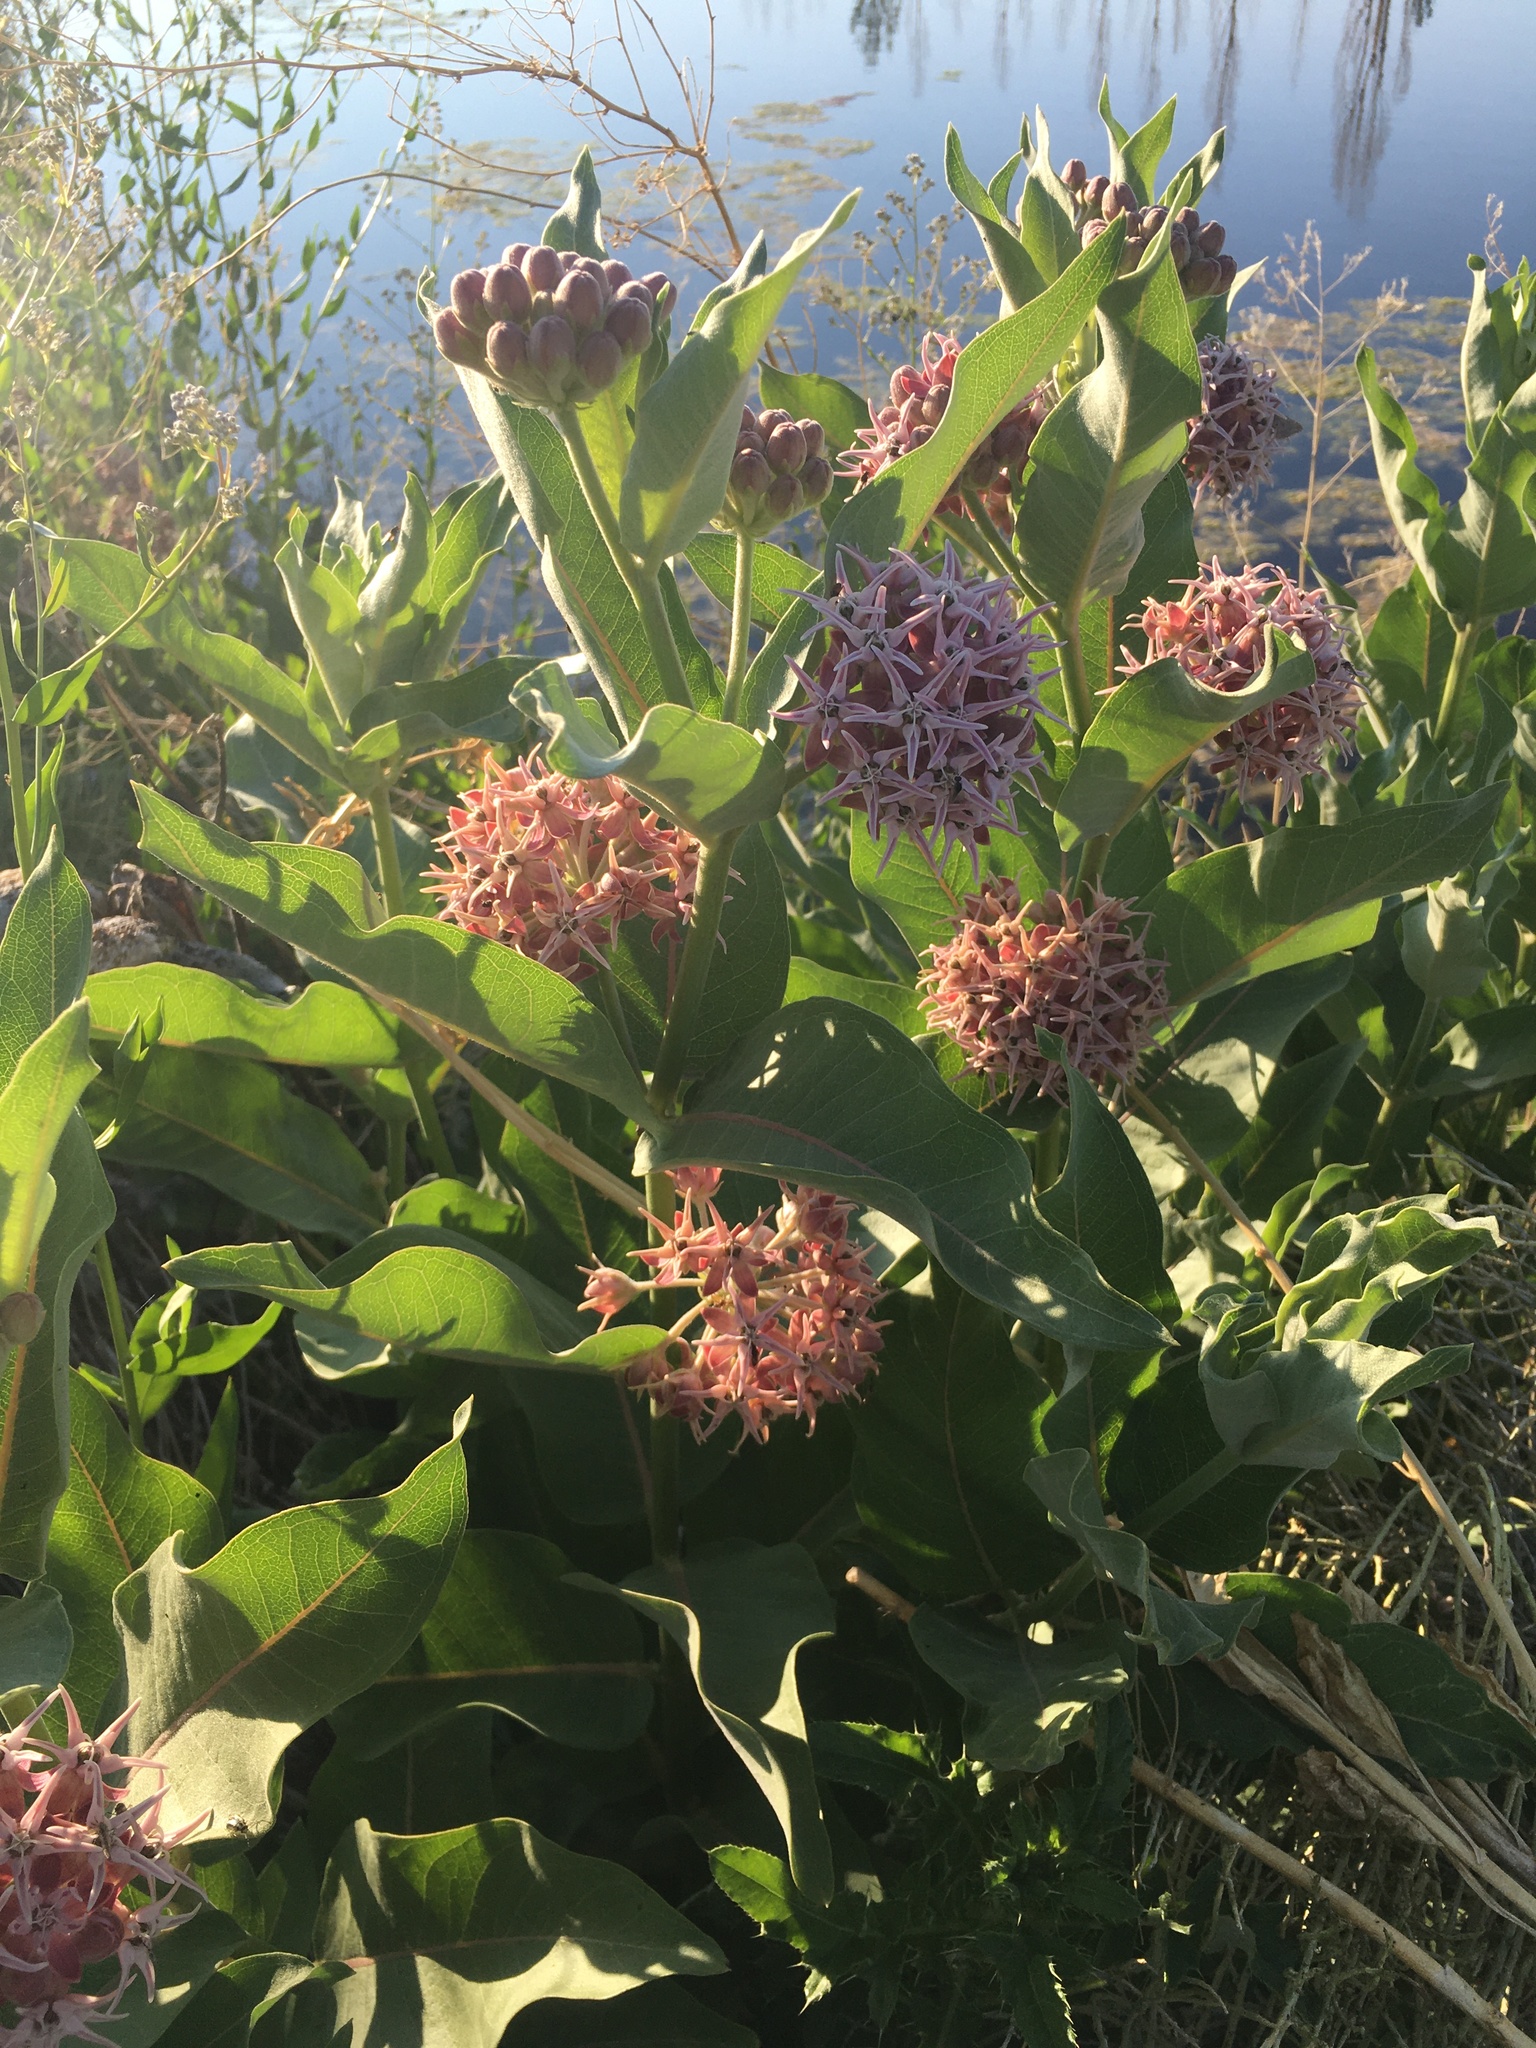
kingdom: Plantae
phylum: Tracheophyta
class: Magnoliopsida
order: Gentianales
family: Apocynaceae
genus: Asclepias
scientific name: Asclepias speciosa
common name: Showy milkweed
